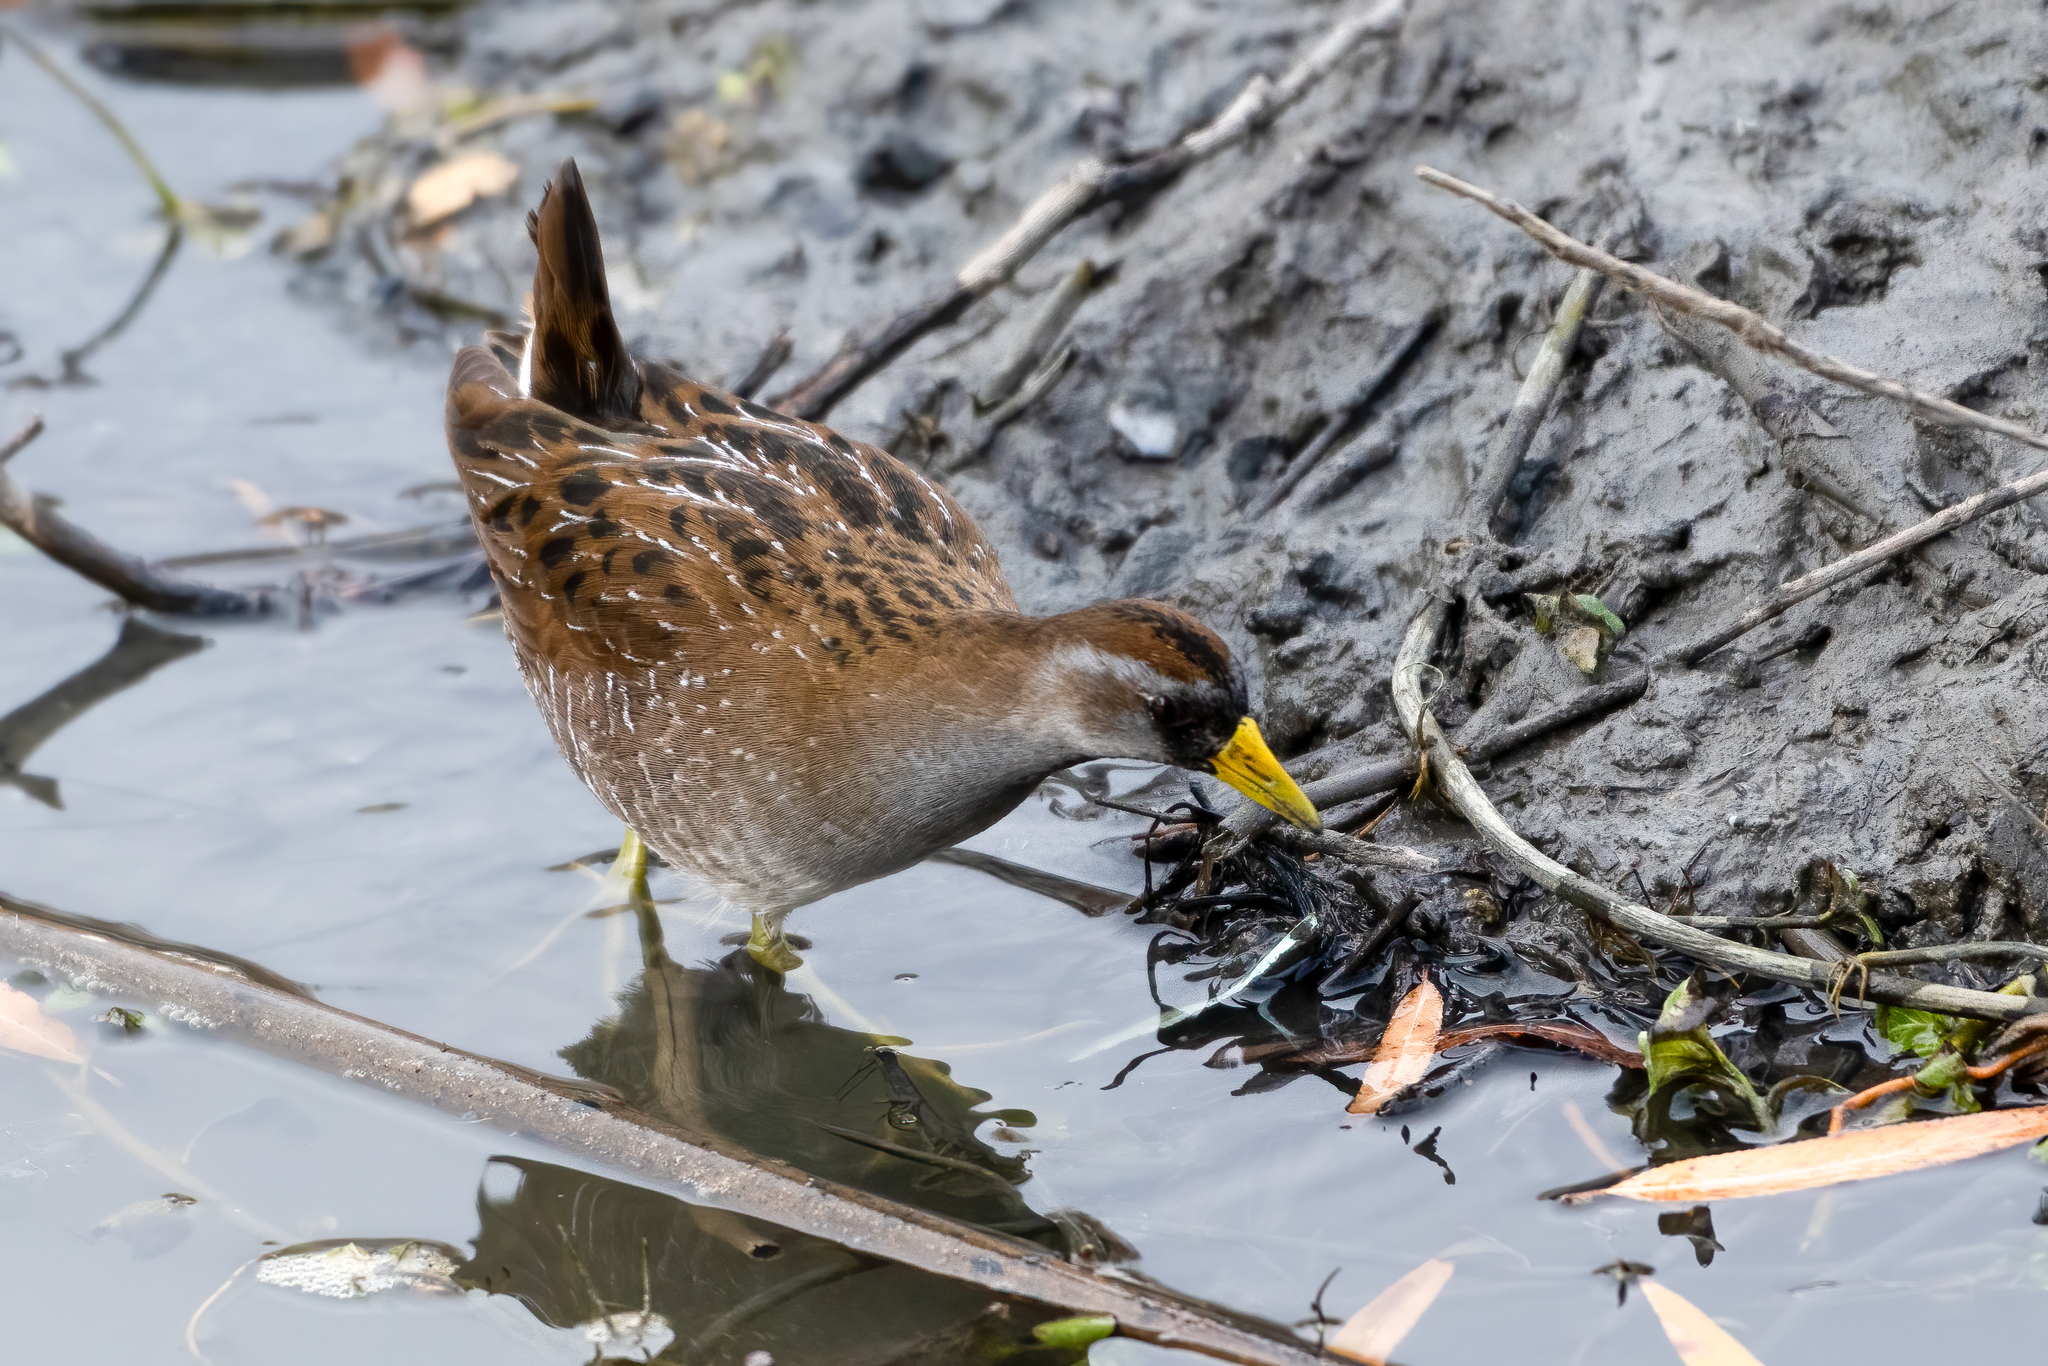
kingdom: Animalia
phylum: Chordata
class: Aves
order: Gruiformes
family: Rallidae
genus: Porzana
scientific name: Porzana carolina
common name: Sora
